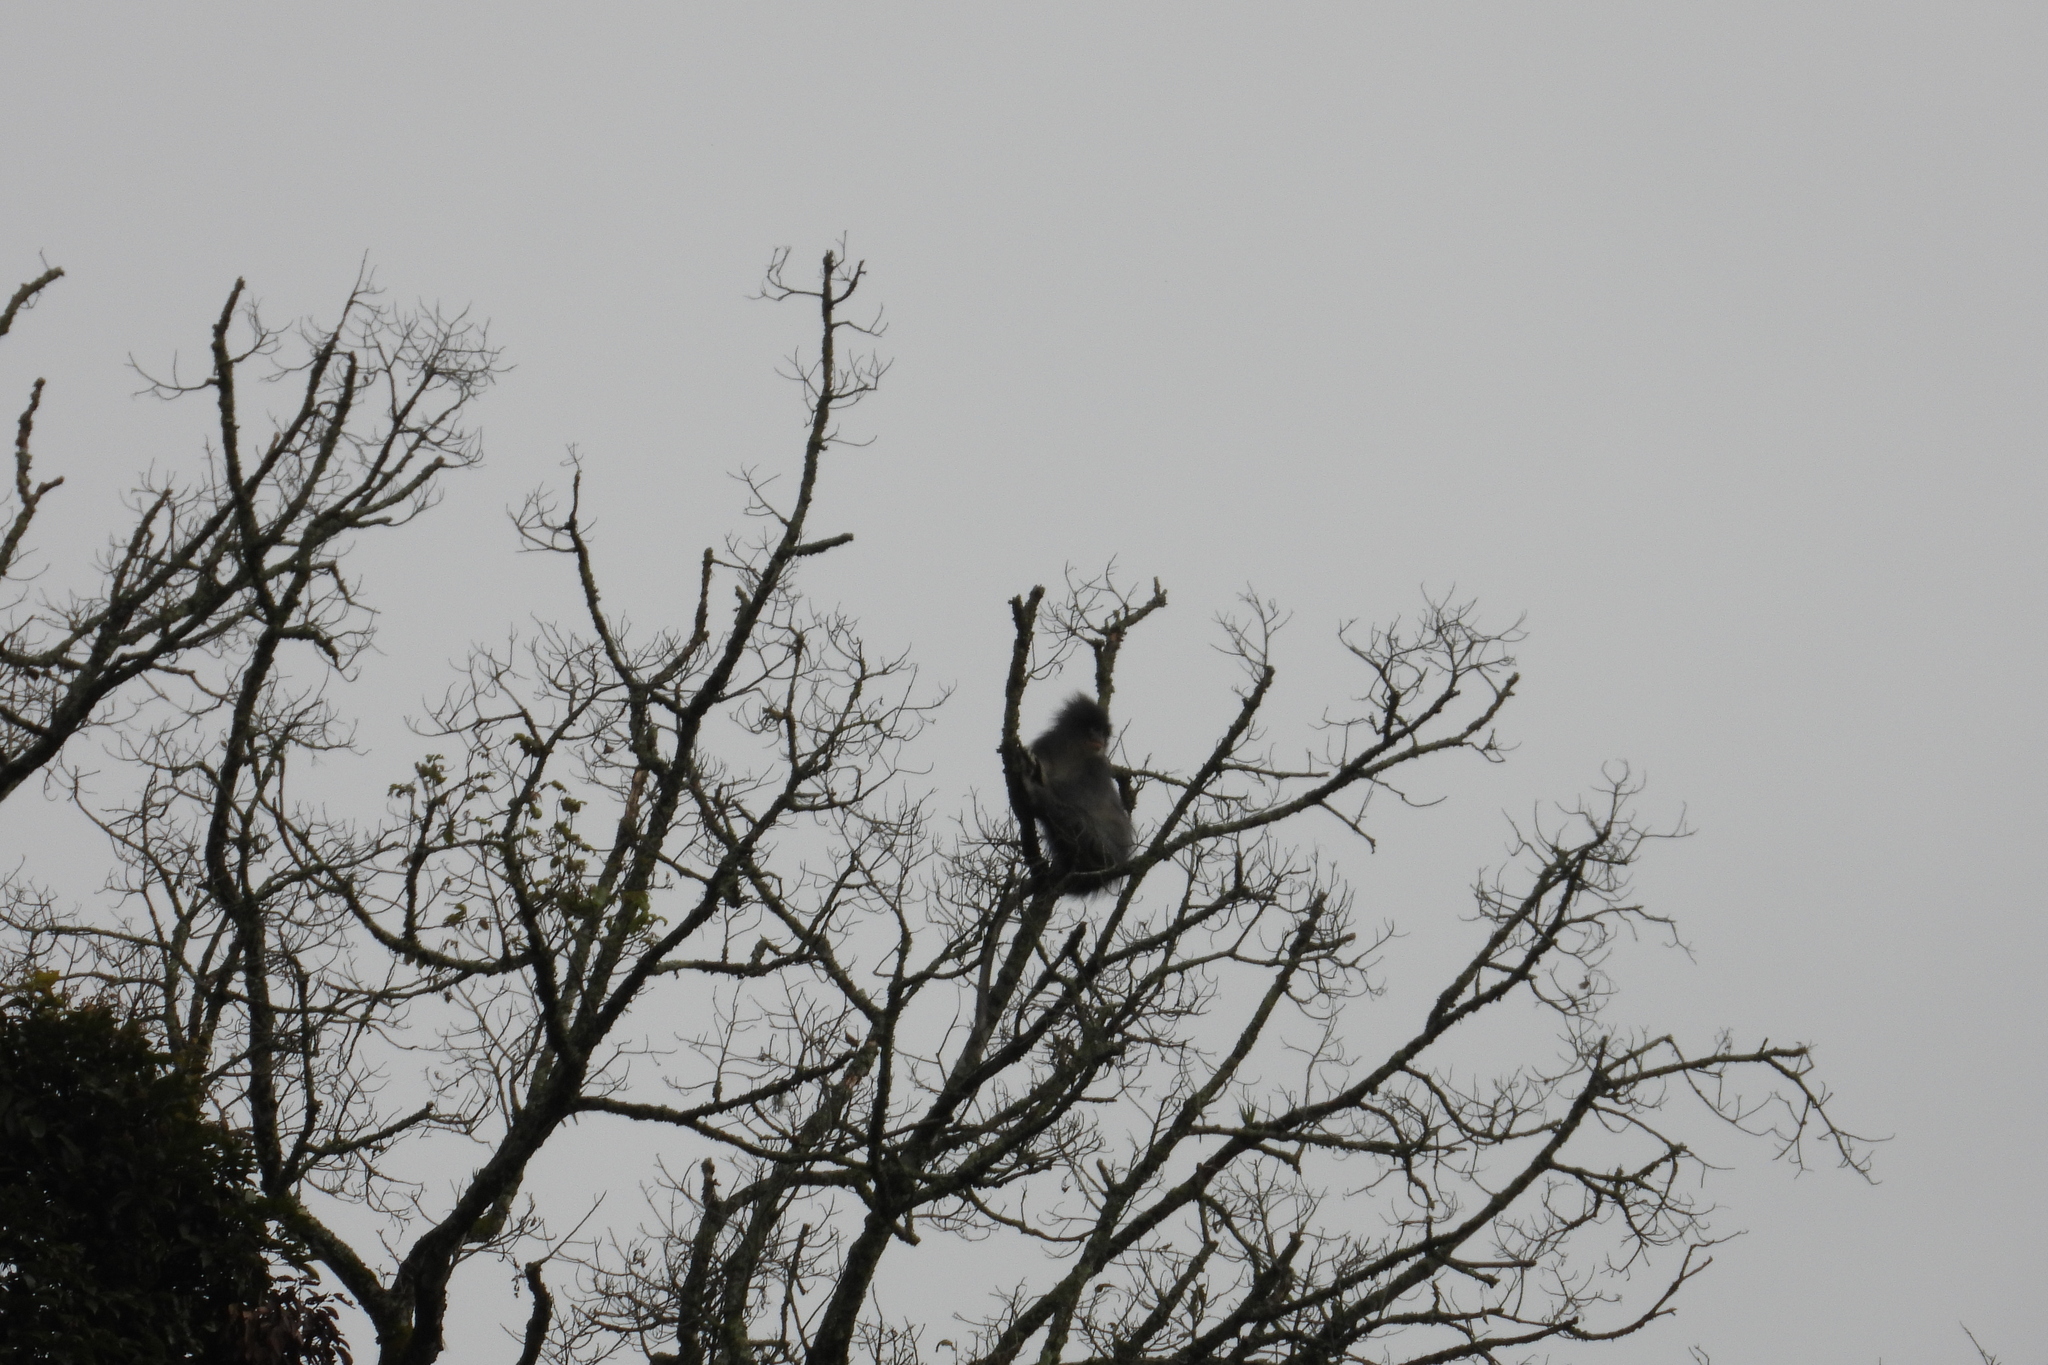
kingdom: Animalia
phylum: Chordata
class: Mammalia
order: Primates
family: Cercopithecidae
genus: Presbytis
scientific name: Presbytis comata
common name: Javan surili
